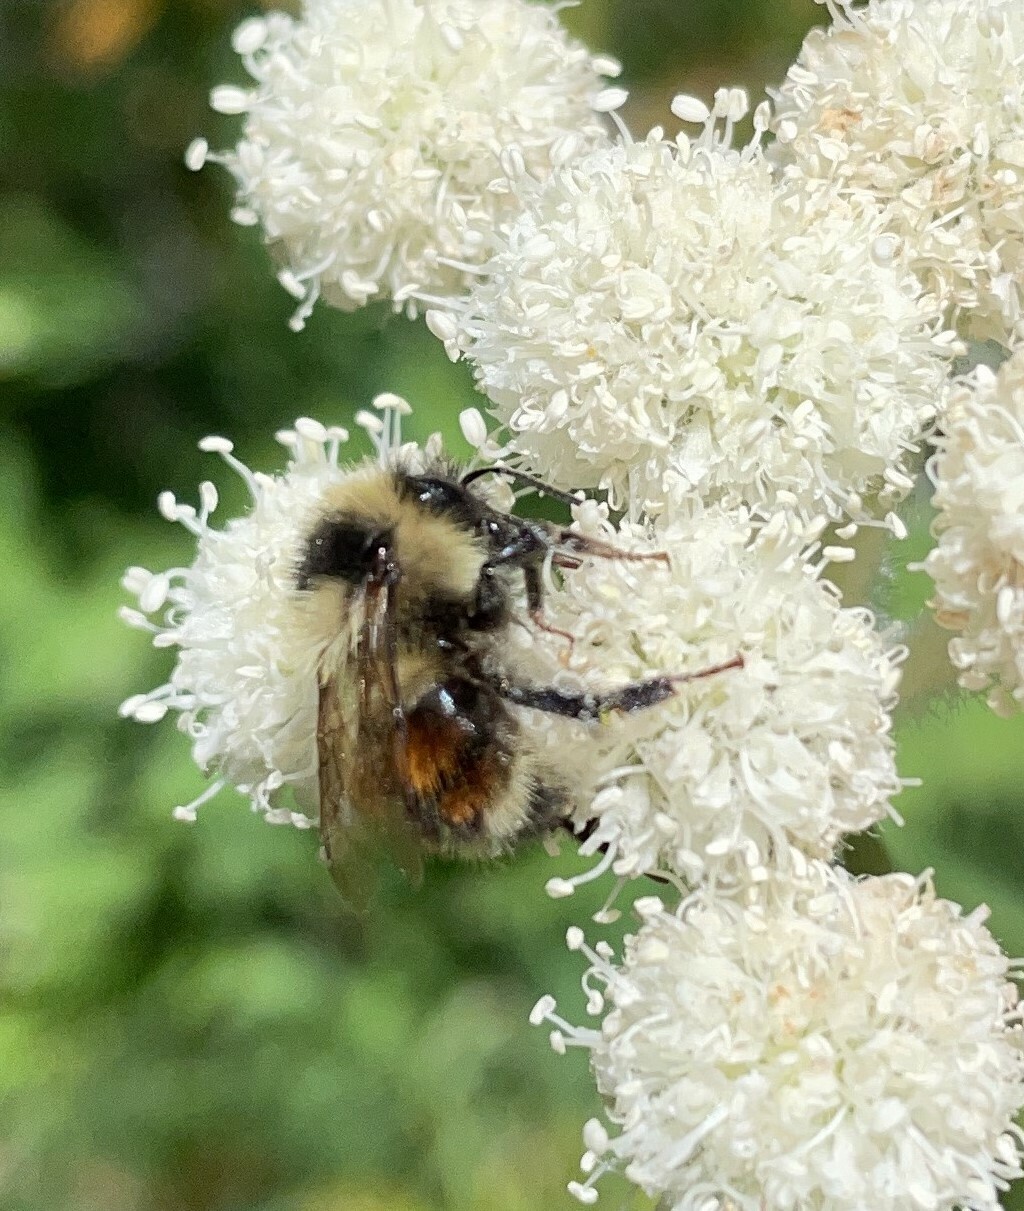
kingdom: Animalia
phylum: Arthropoda
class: Insecta
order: Hymenoptera
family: Apidae
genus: Bombus
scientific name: Bombus sylvicola
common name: Forest bumble bee
